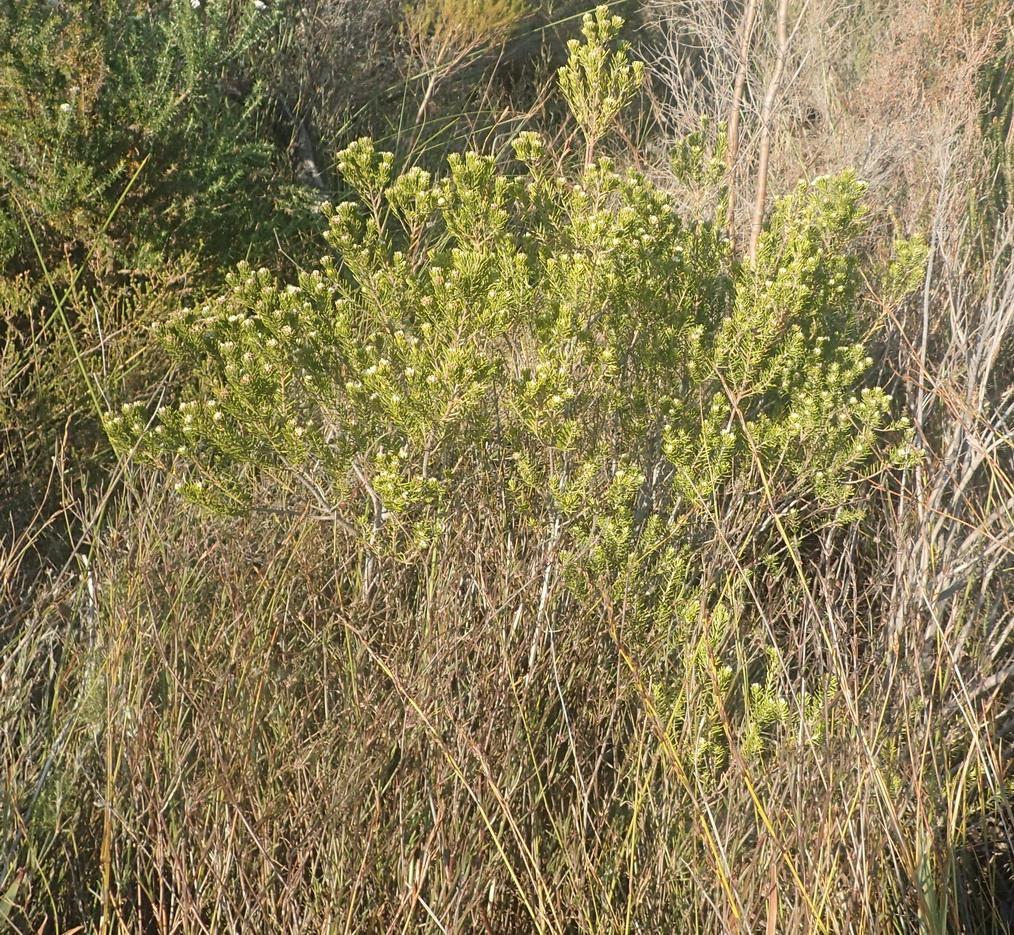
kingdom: Plantae
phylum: Tracheophyta
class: Magnoliopsida
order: Rosales
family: Rhamnaceae
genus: Phylica
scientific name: Phylica axillaris
